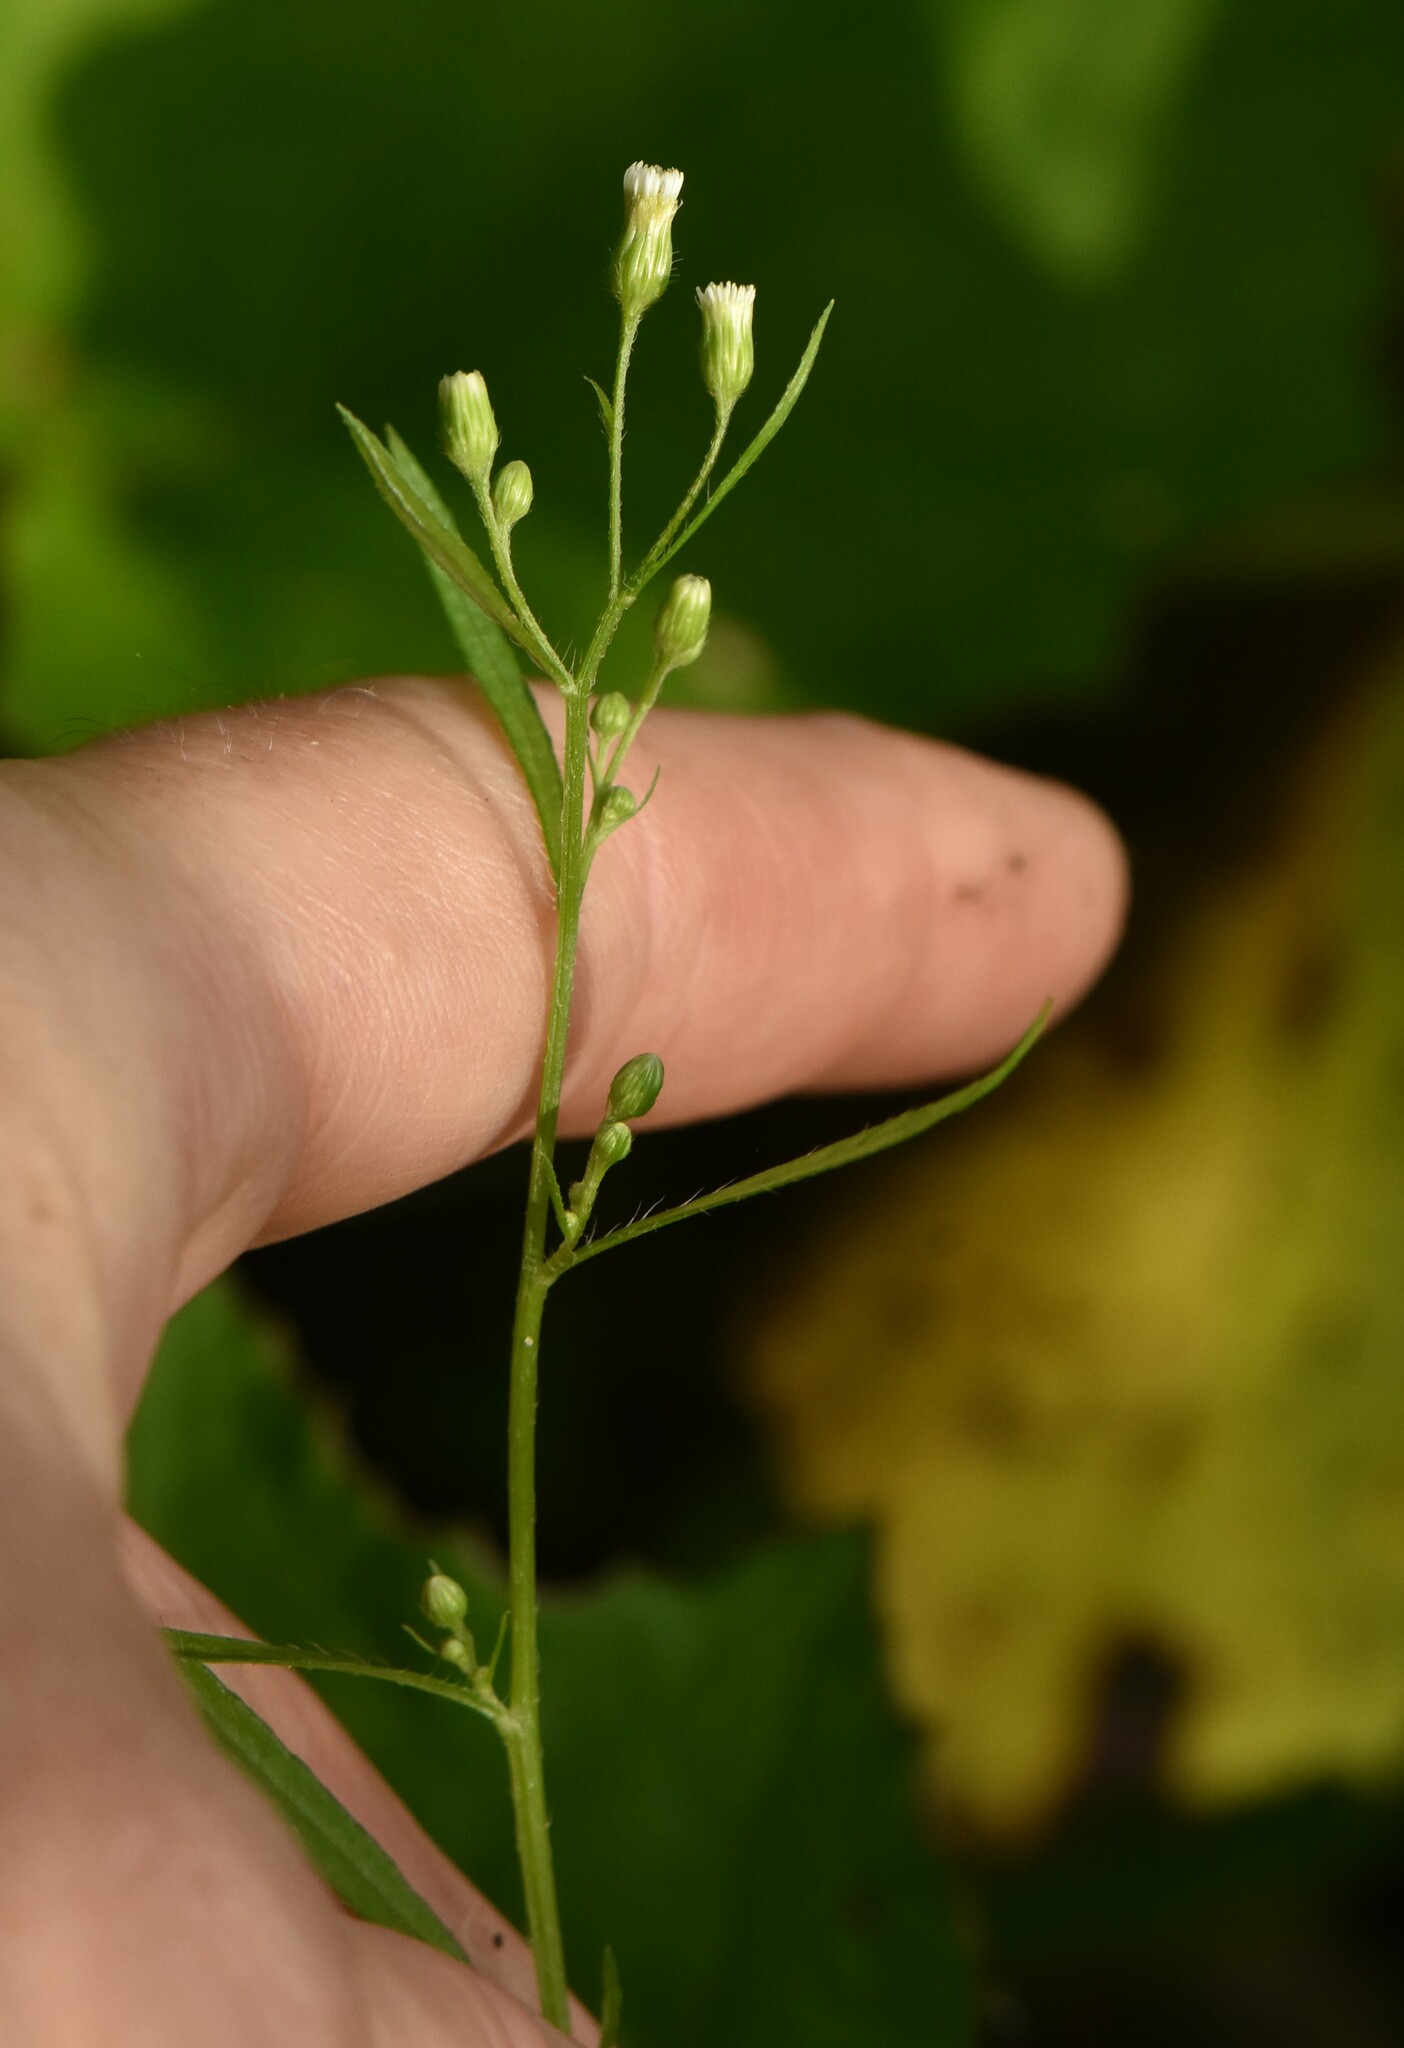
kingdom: Plantae
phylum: Tracheophyta
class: Magnoliopsida
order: Asterales
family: Asteraceae
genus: Erigeron
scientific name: Erigeron canadensis
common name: Canadian fleabane
